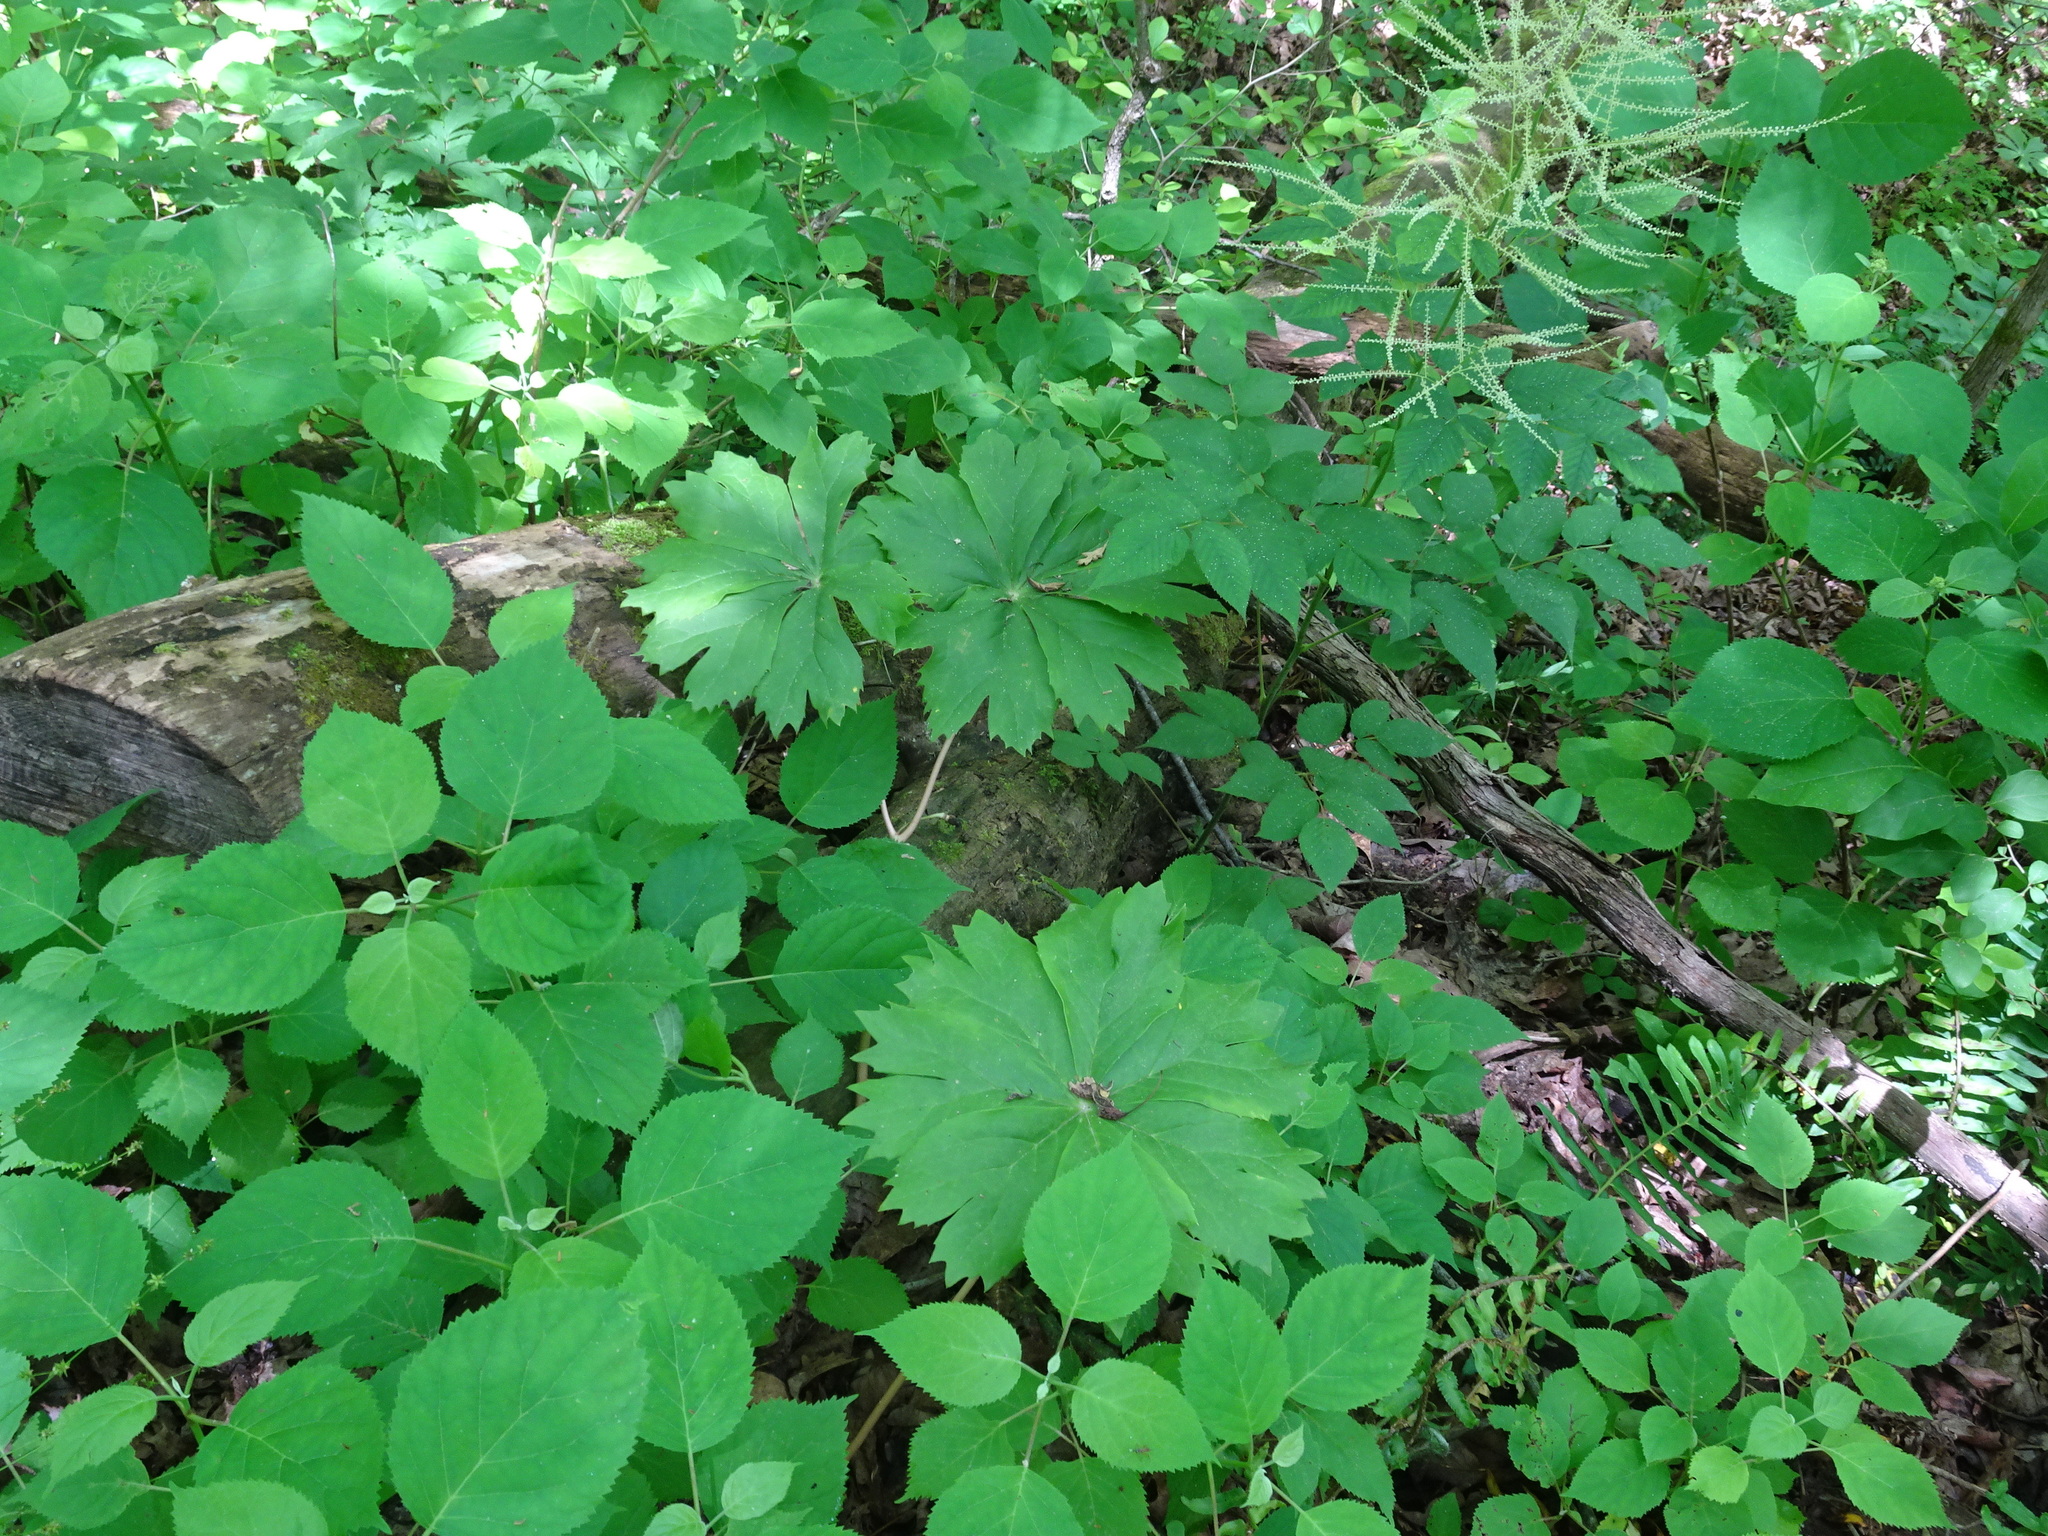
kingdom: Plantae
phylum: Tracheophyta
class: Magnoliopsida
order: Ranunculales
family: Berberidaceae
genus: Podophyllum
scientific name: Podophyllum peltatum
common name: Wild mandrake
